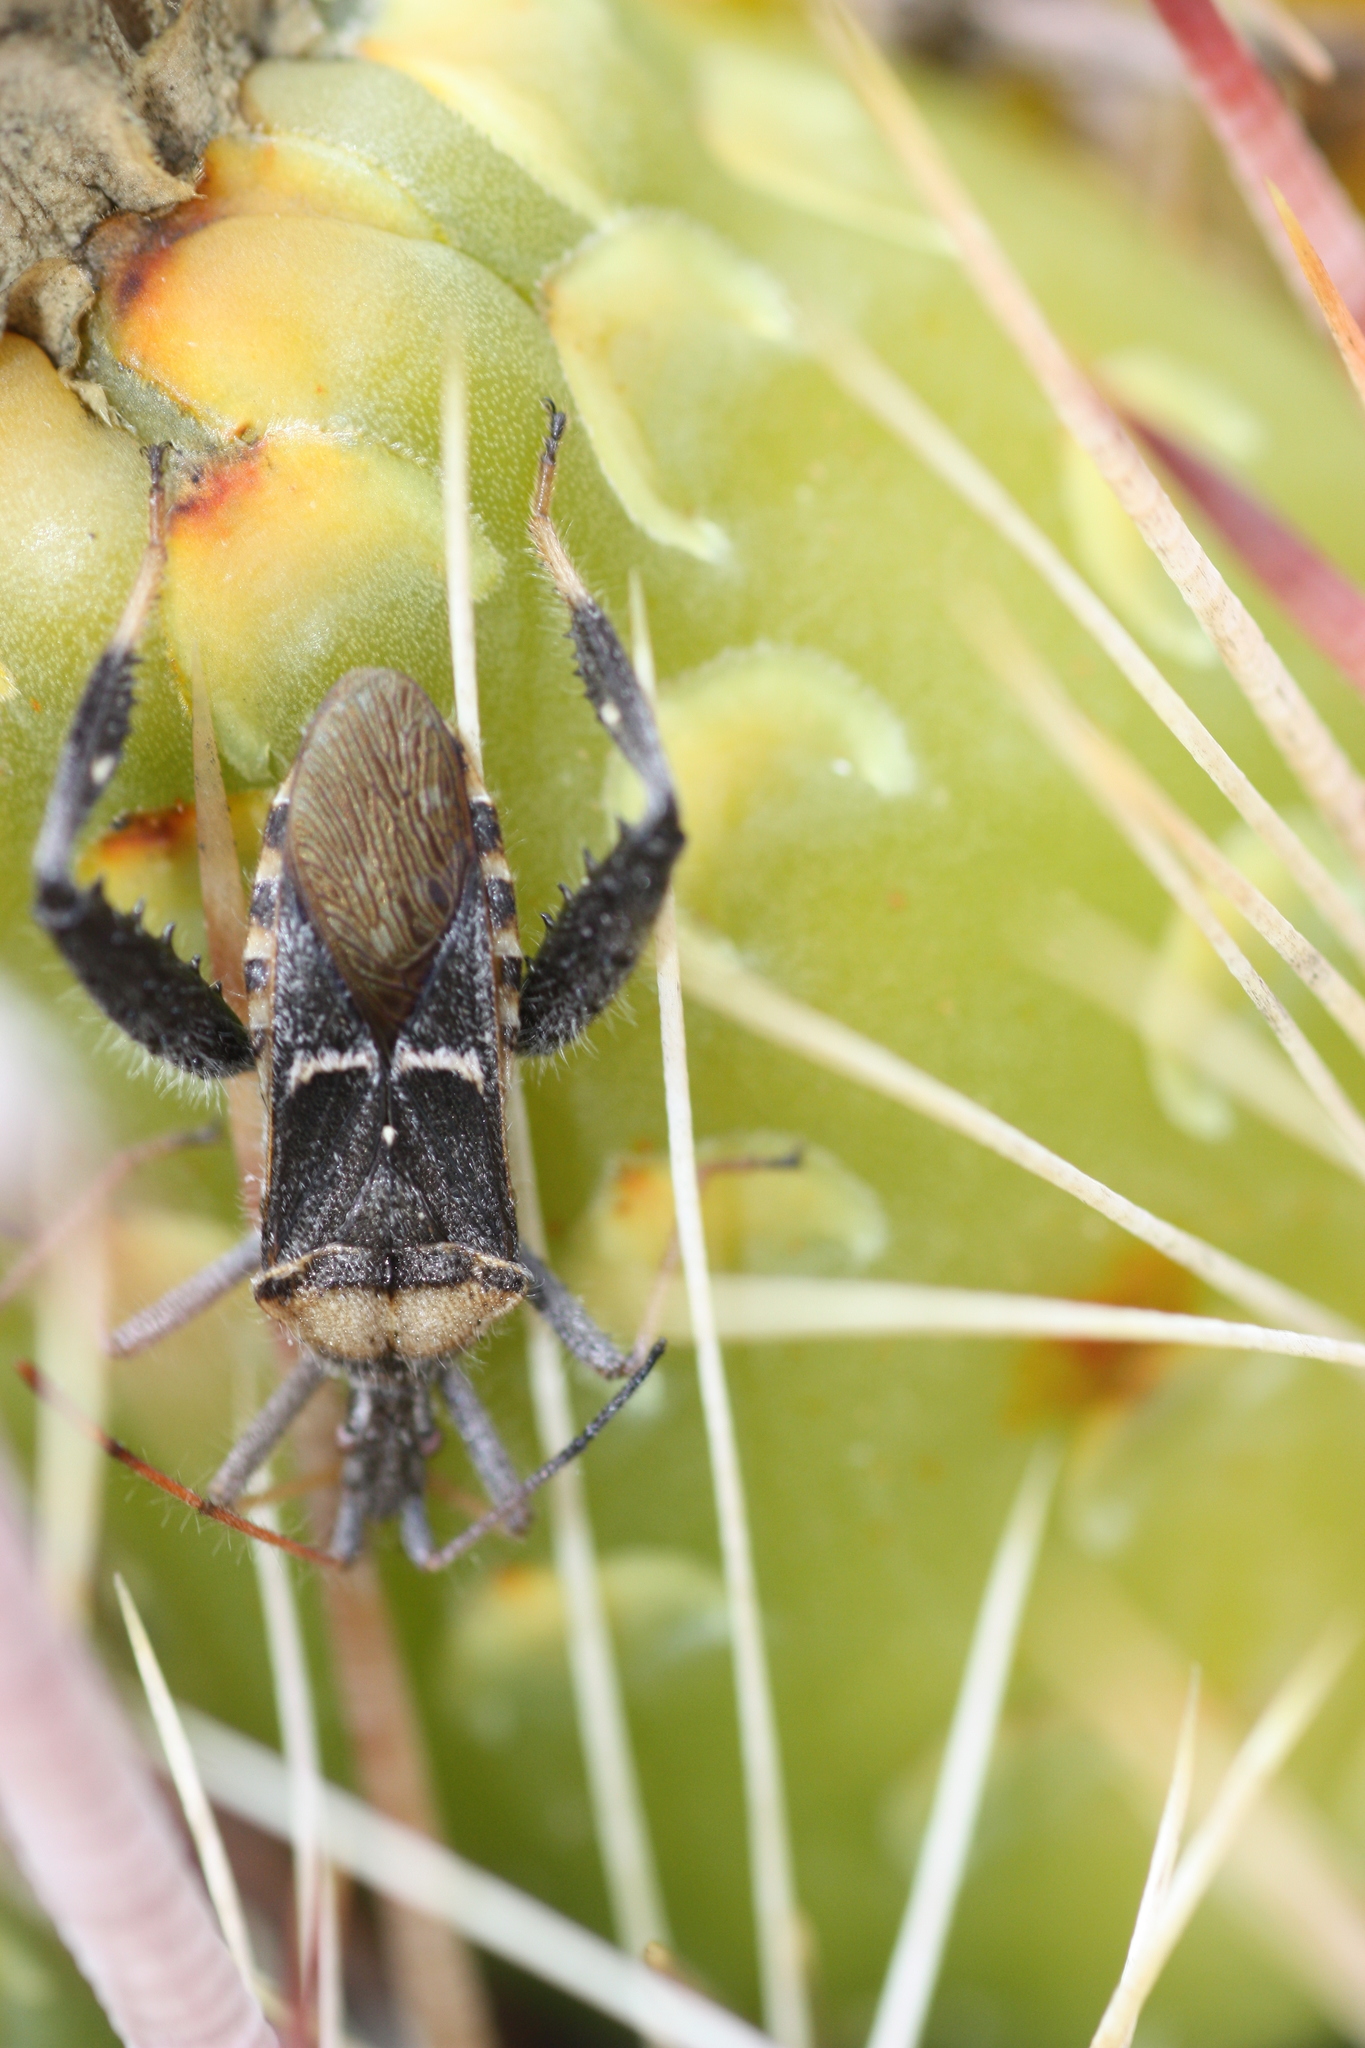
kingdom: Animalia
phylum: Arthropoda
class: Insecta
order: Hemiptera
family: Coreidae
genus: Narnia
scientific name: Narnia snowi
